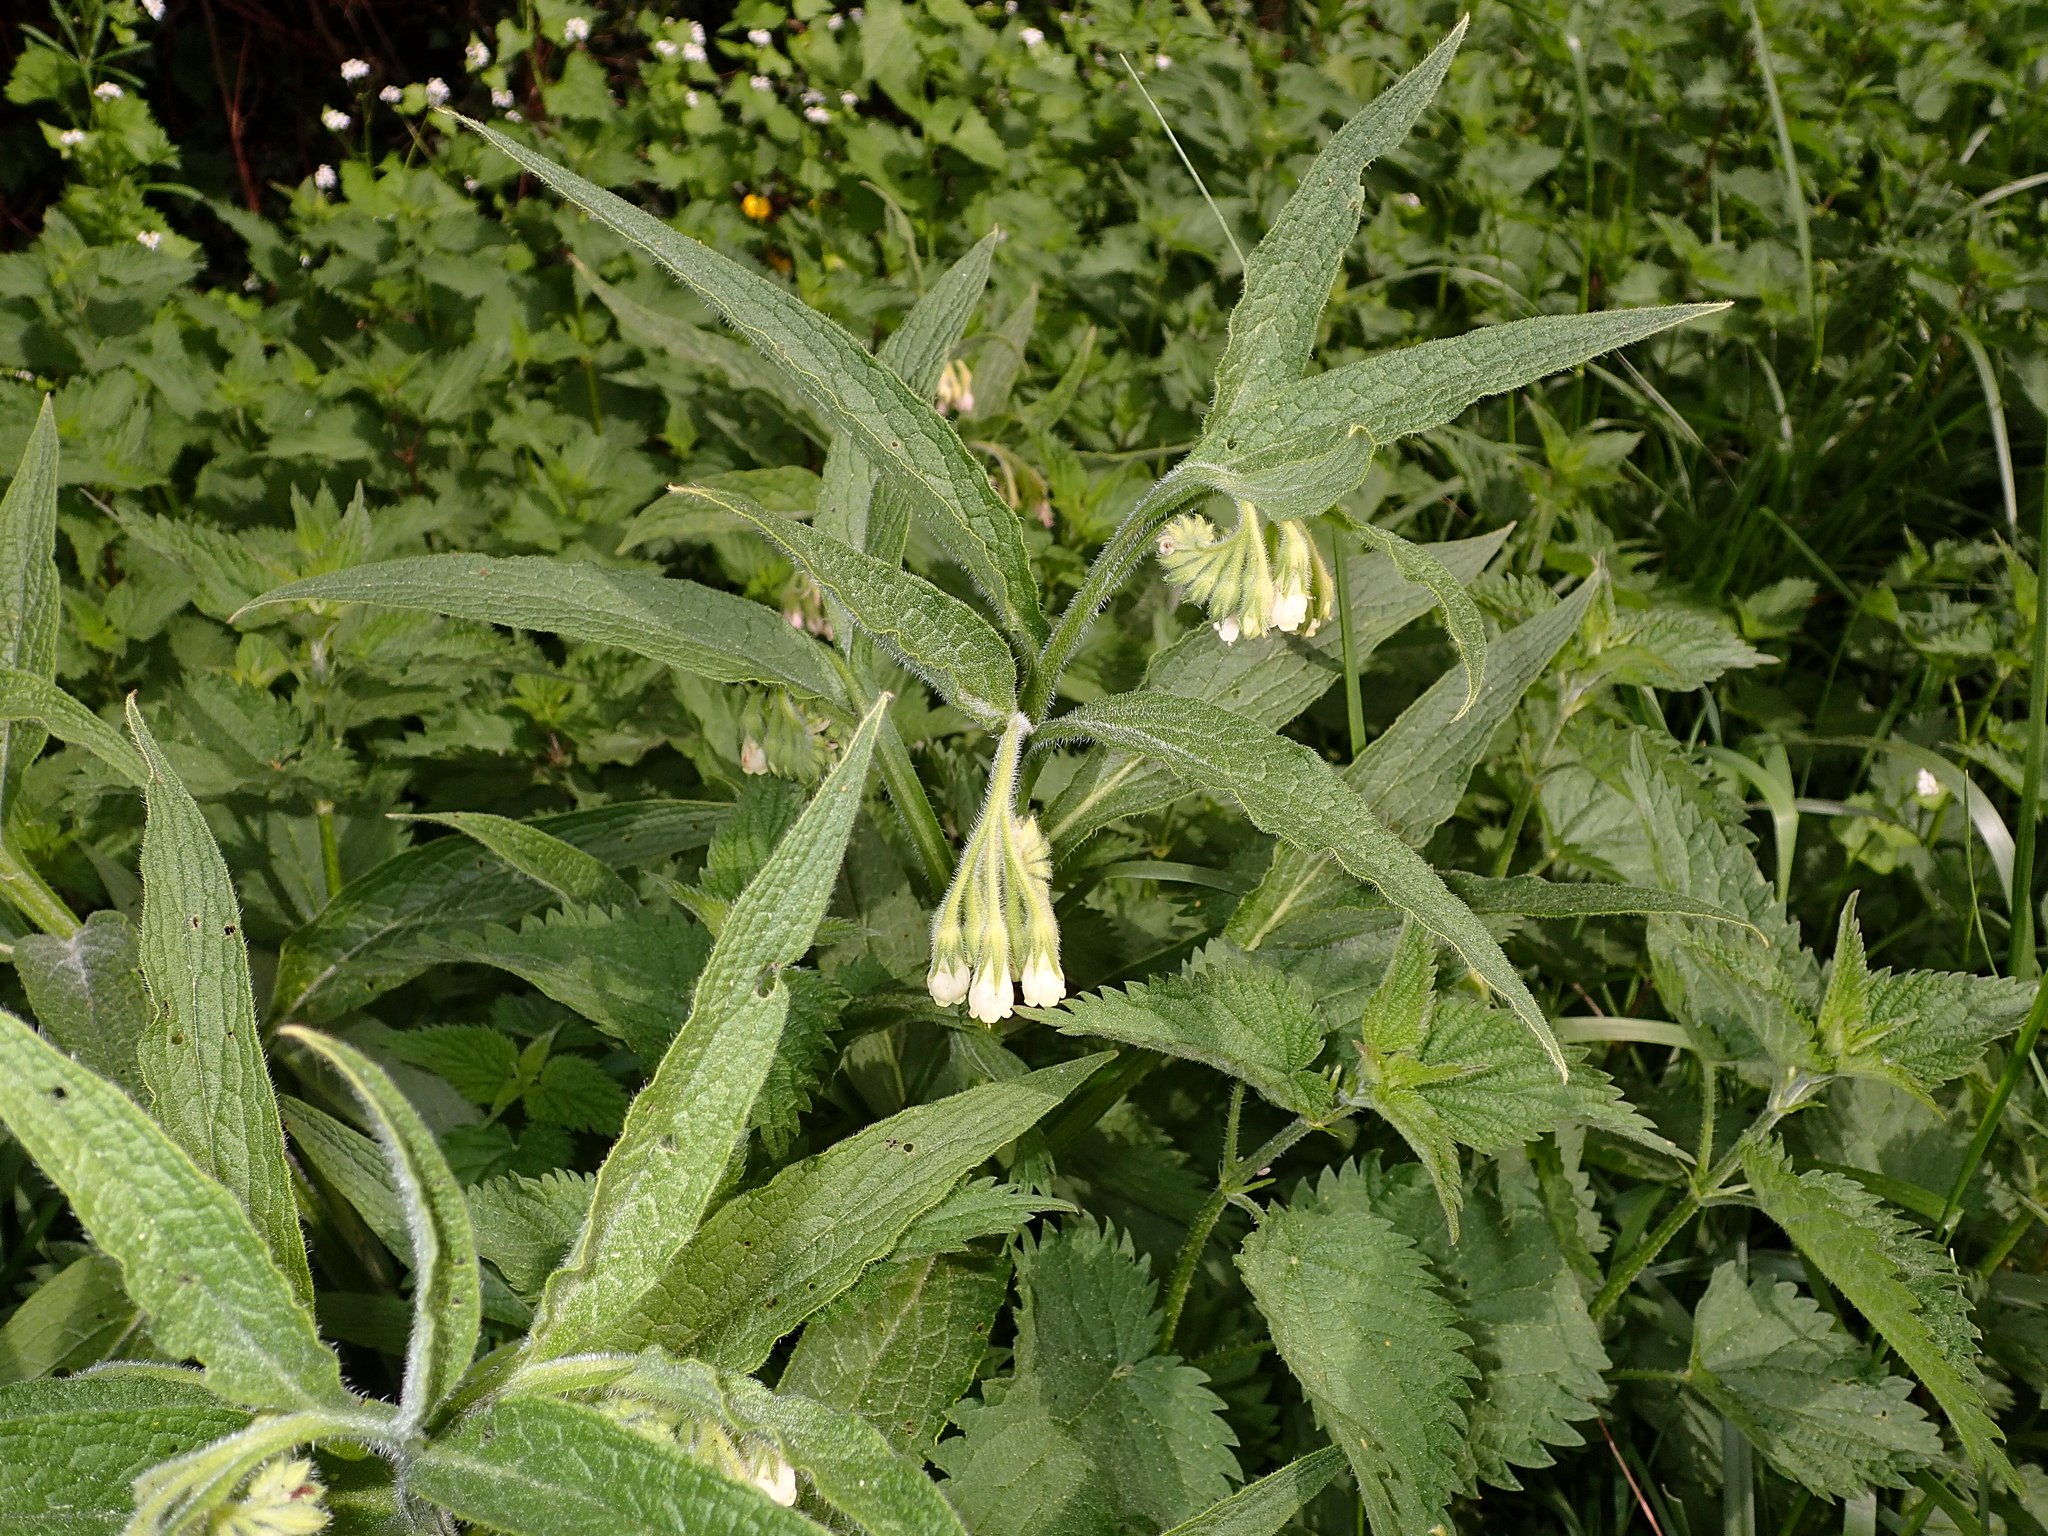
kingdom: Plantae
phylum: Tracheophyta
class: Magnoliopsida
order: Boraginales
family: Boraginaceae
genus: Symphytum
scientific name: Symphytum officinale
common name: Common comfrey
